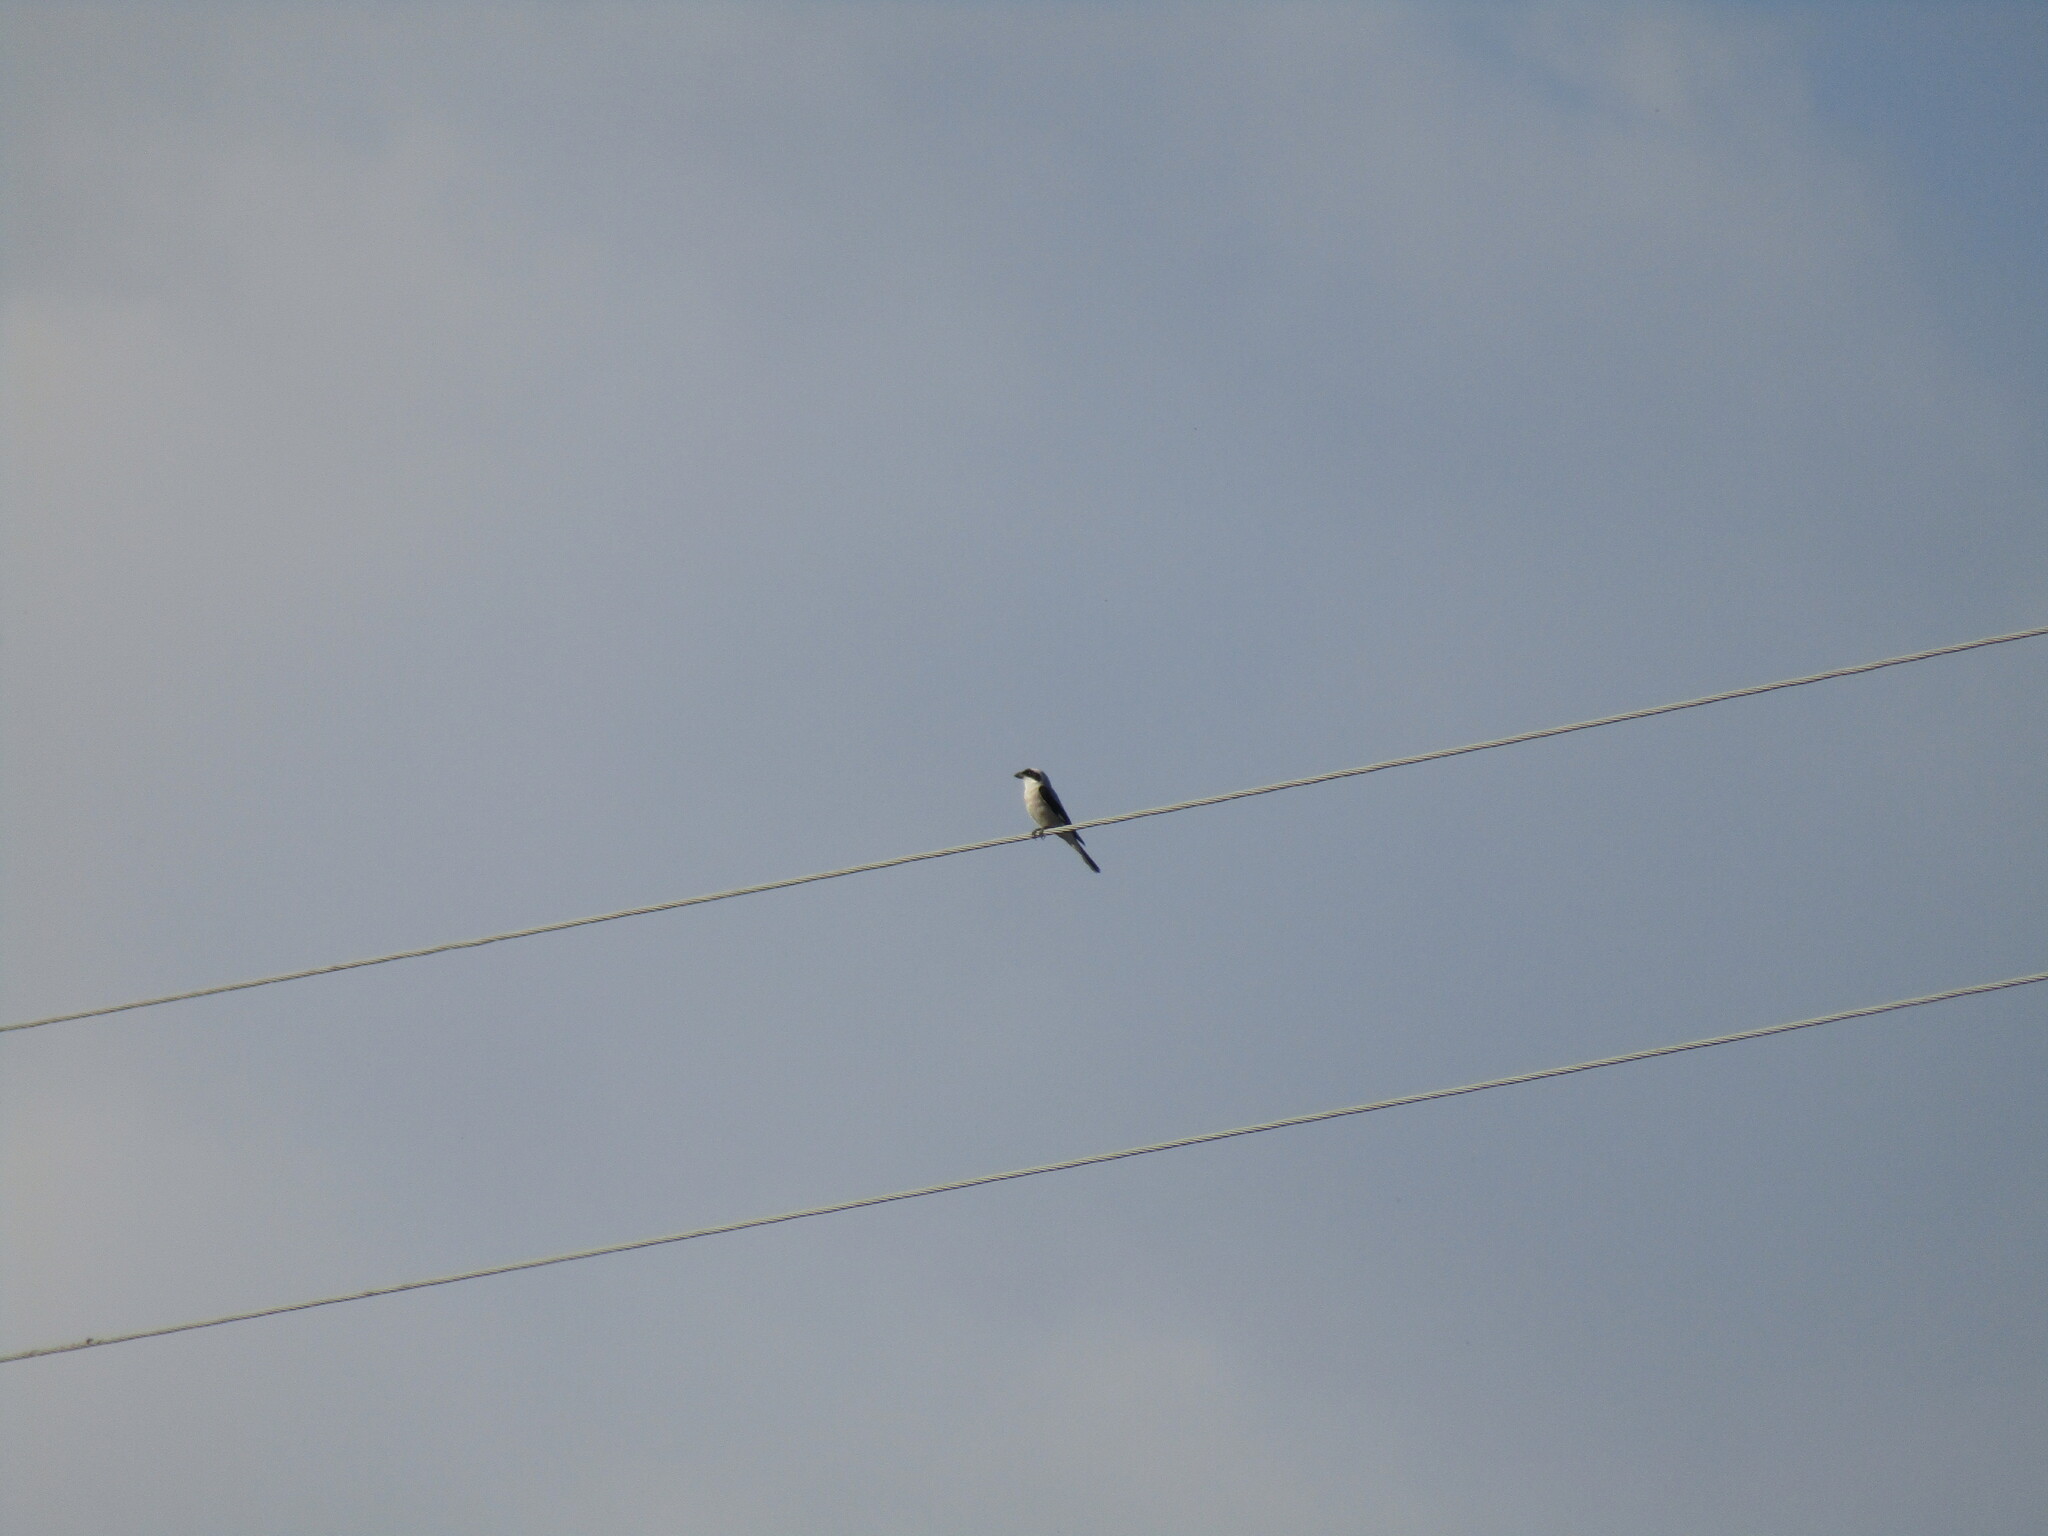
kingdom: Animalia
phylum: Chordata
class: Aves
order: Passeriformes
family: Laniidae
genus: Lanius
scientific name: Lanius minor
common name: Lesser grey shrike
